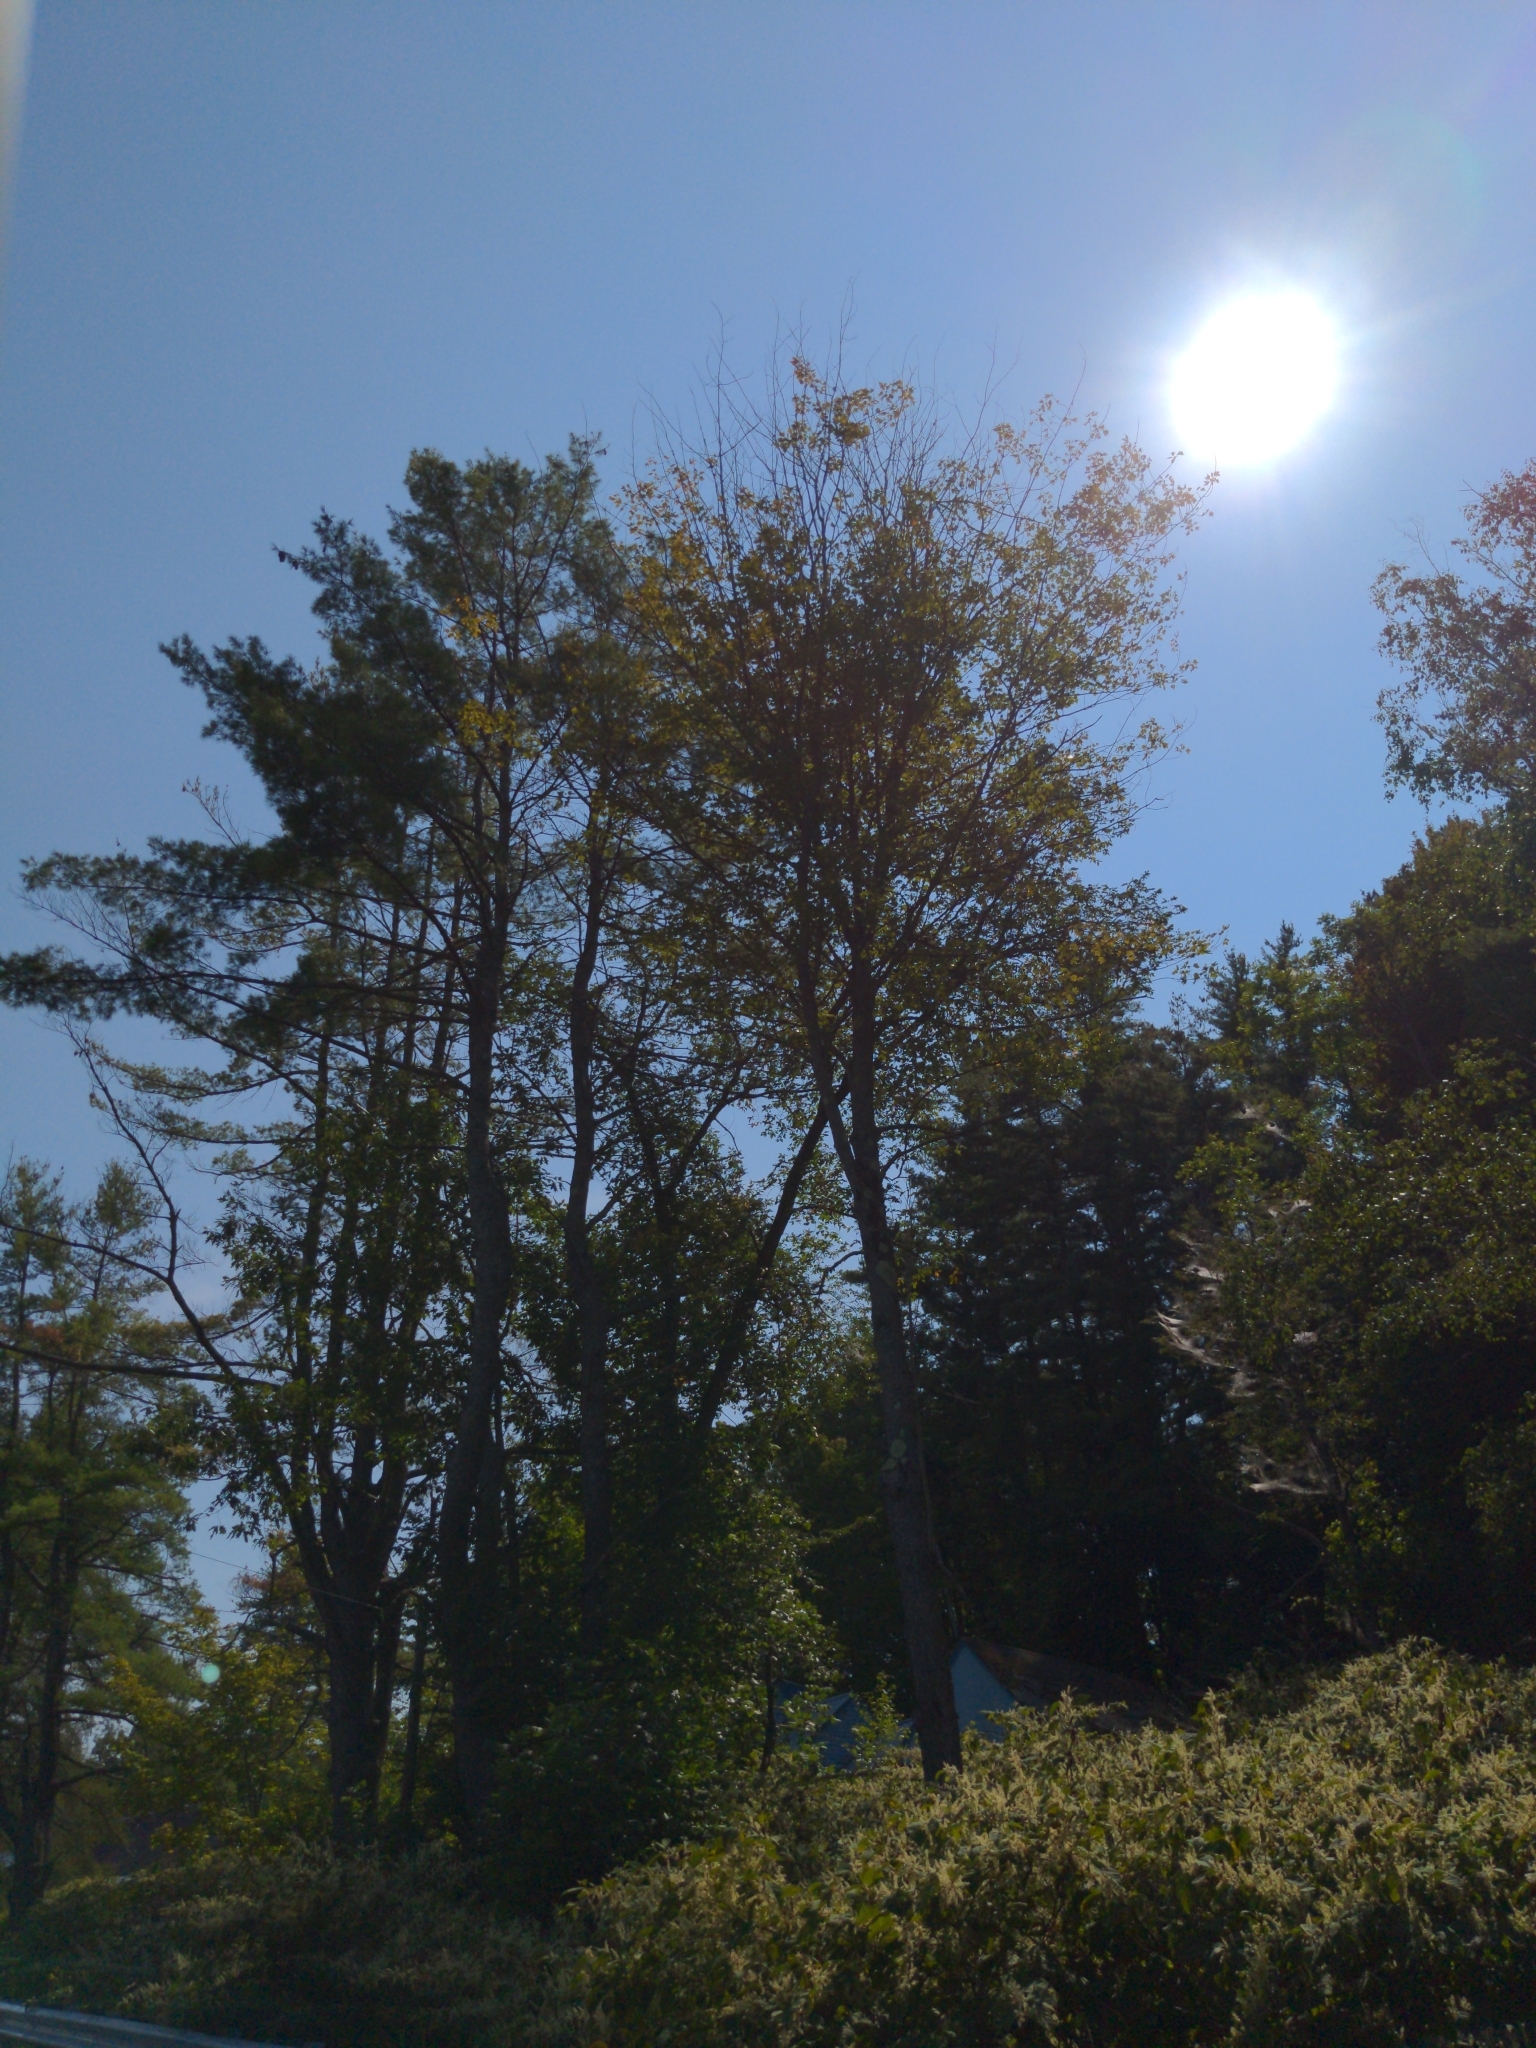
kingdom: Plantae
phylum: Tracheophyta
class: Pinopsida
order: Pinales
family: Pinaceae
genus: Pinus
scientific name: Pinus strobus
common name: Weymouth pine
